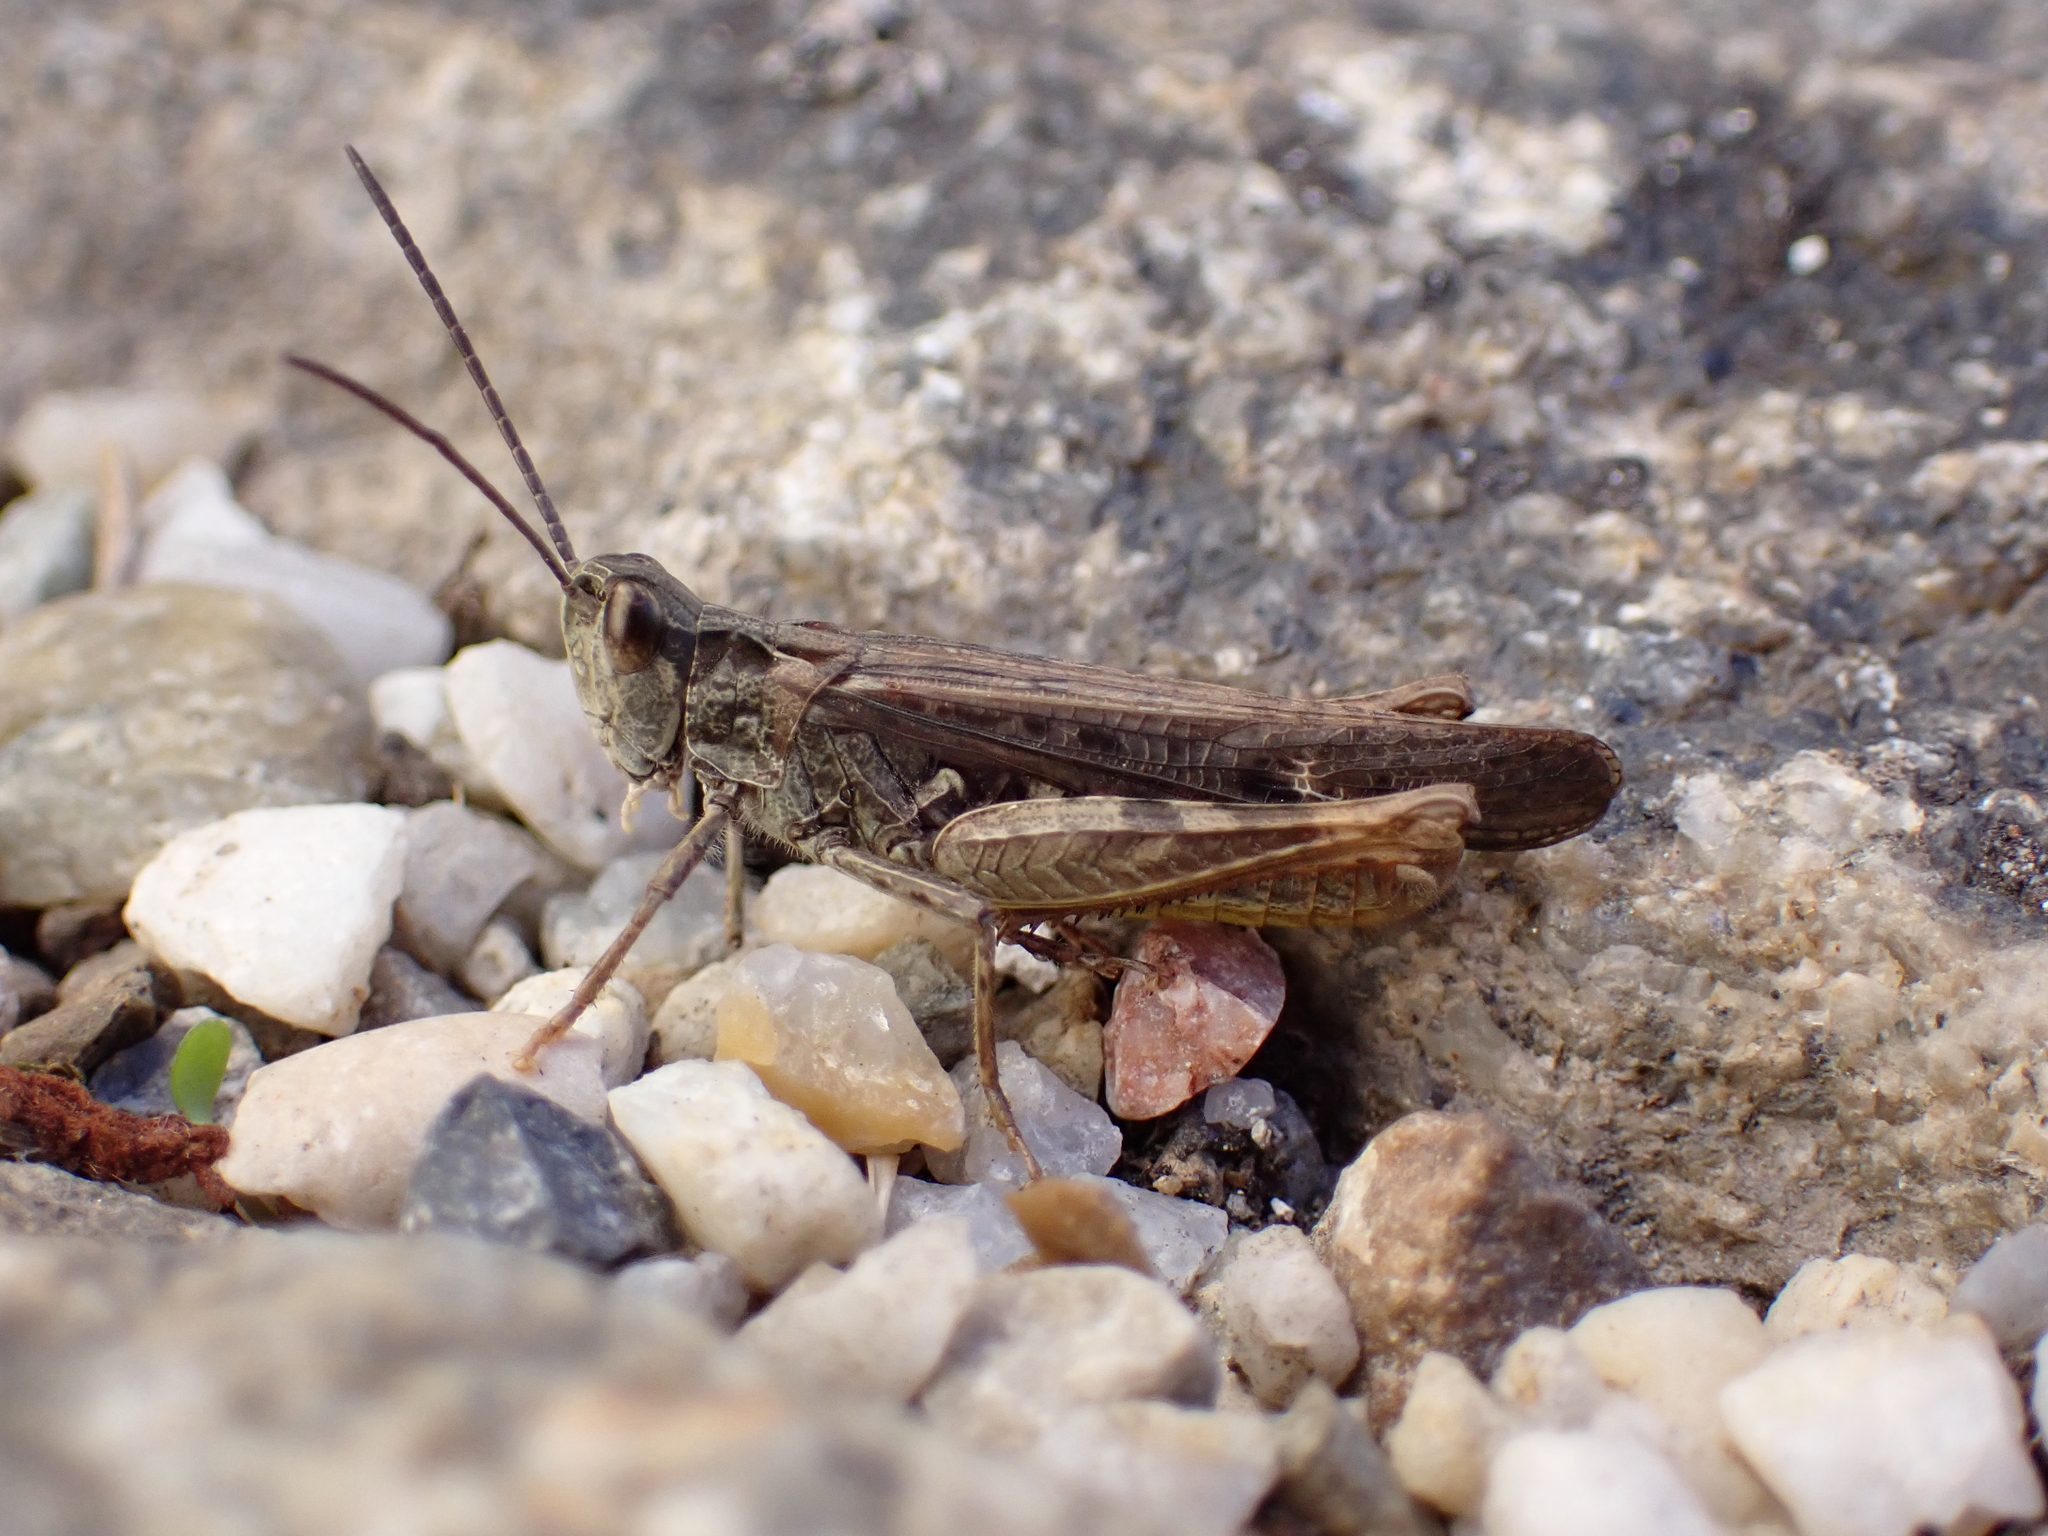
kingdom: Animalia
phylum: Arthropoda
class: Insecta
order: Orthoptera
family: Acrididae
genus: Chorthippus
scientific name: Chorthippus brunneus
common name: Field grasshopper
